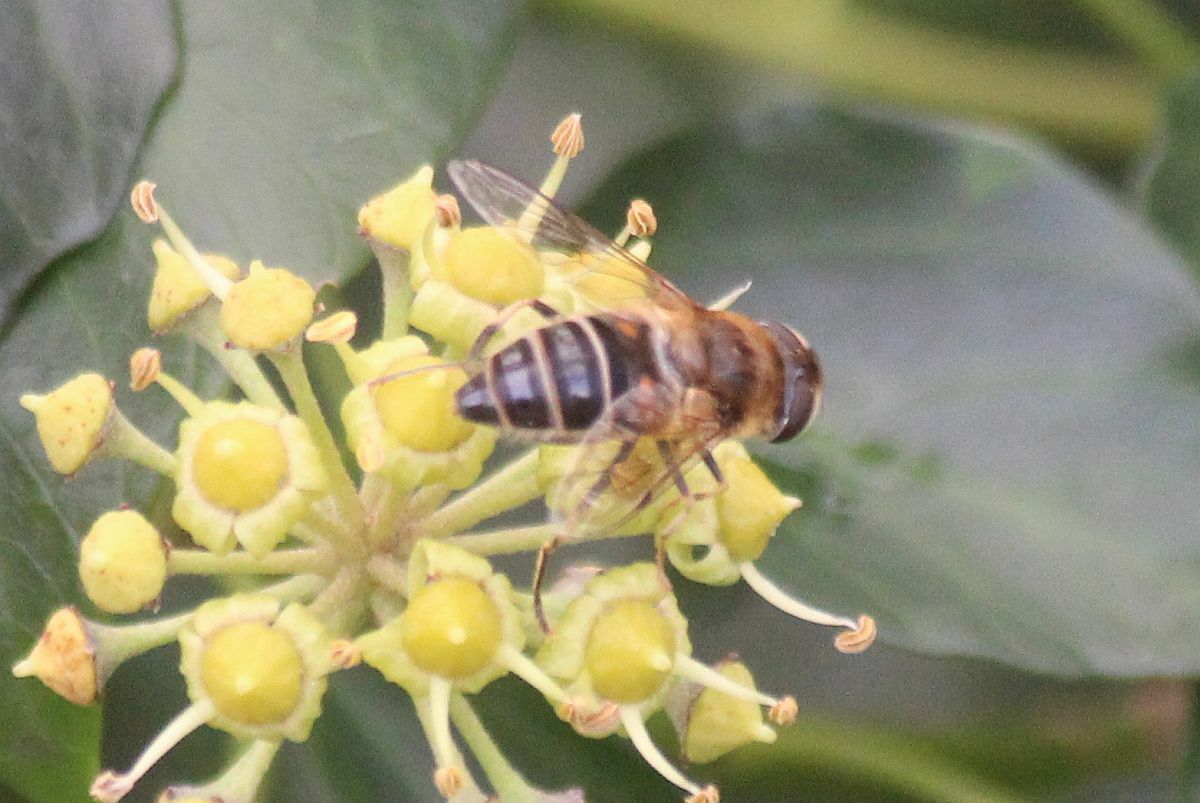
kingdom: Animalia
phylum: Arthropoda
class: Insecta
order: Diptera
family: Syrphidae
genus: Eristalis
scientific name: Eristalis pertinax
